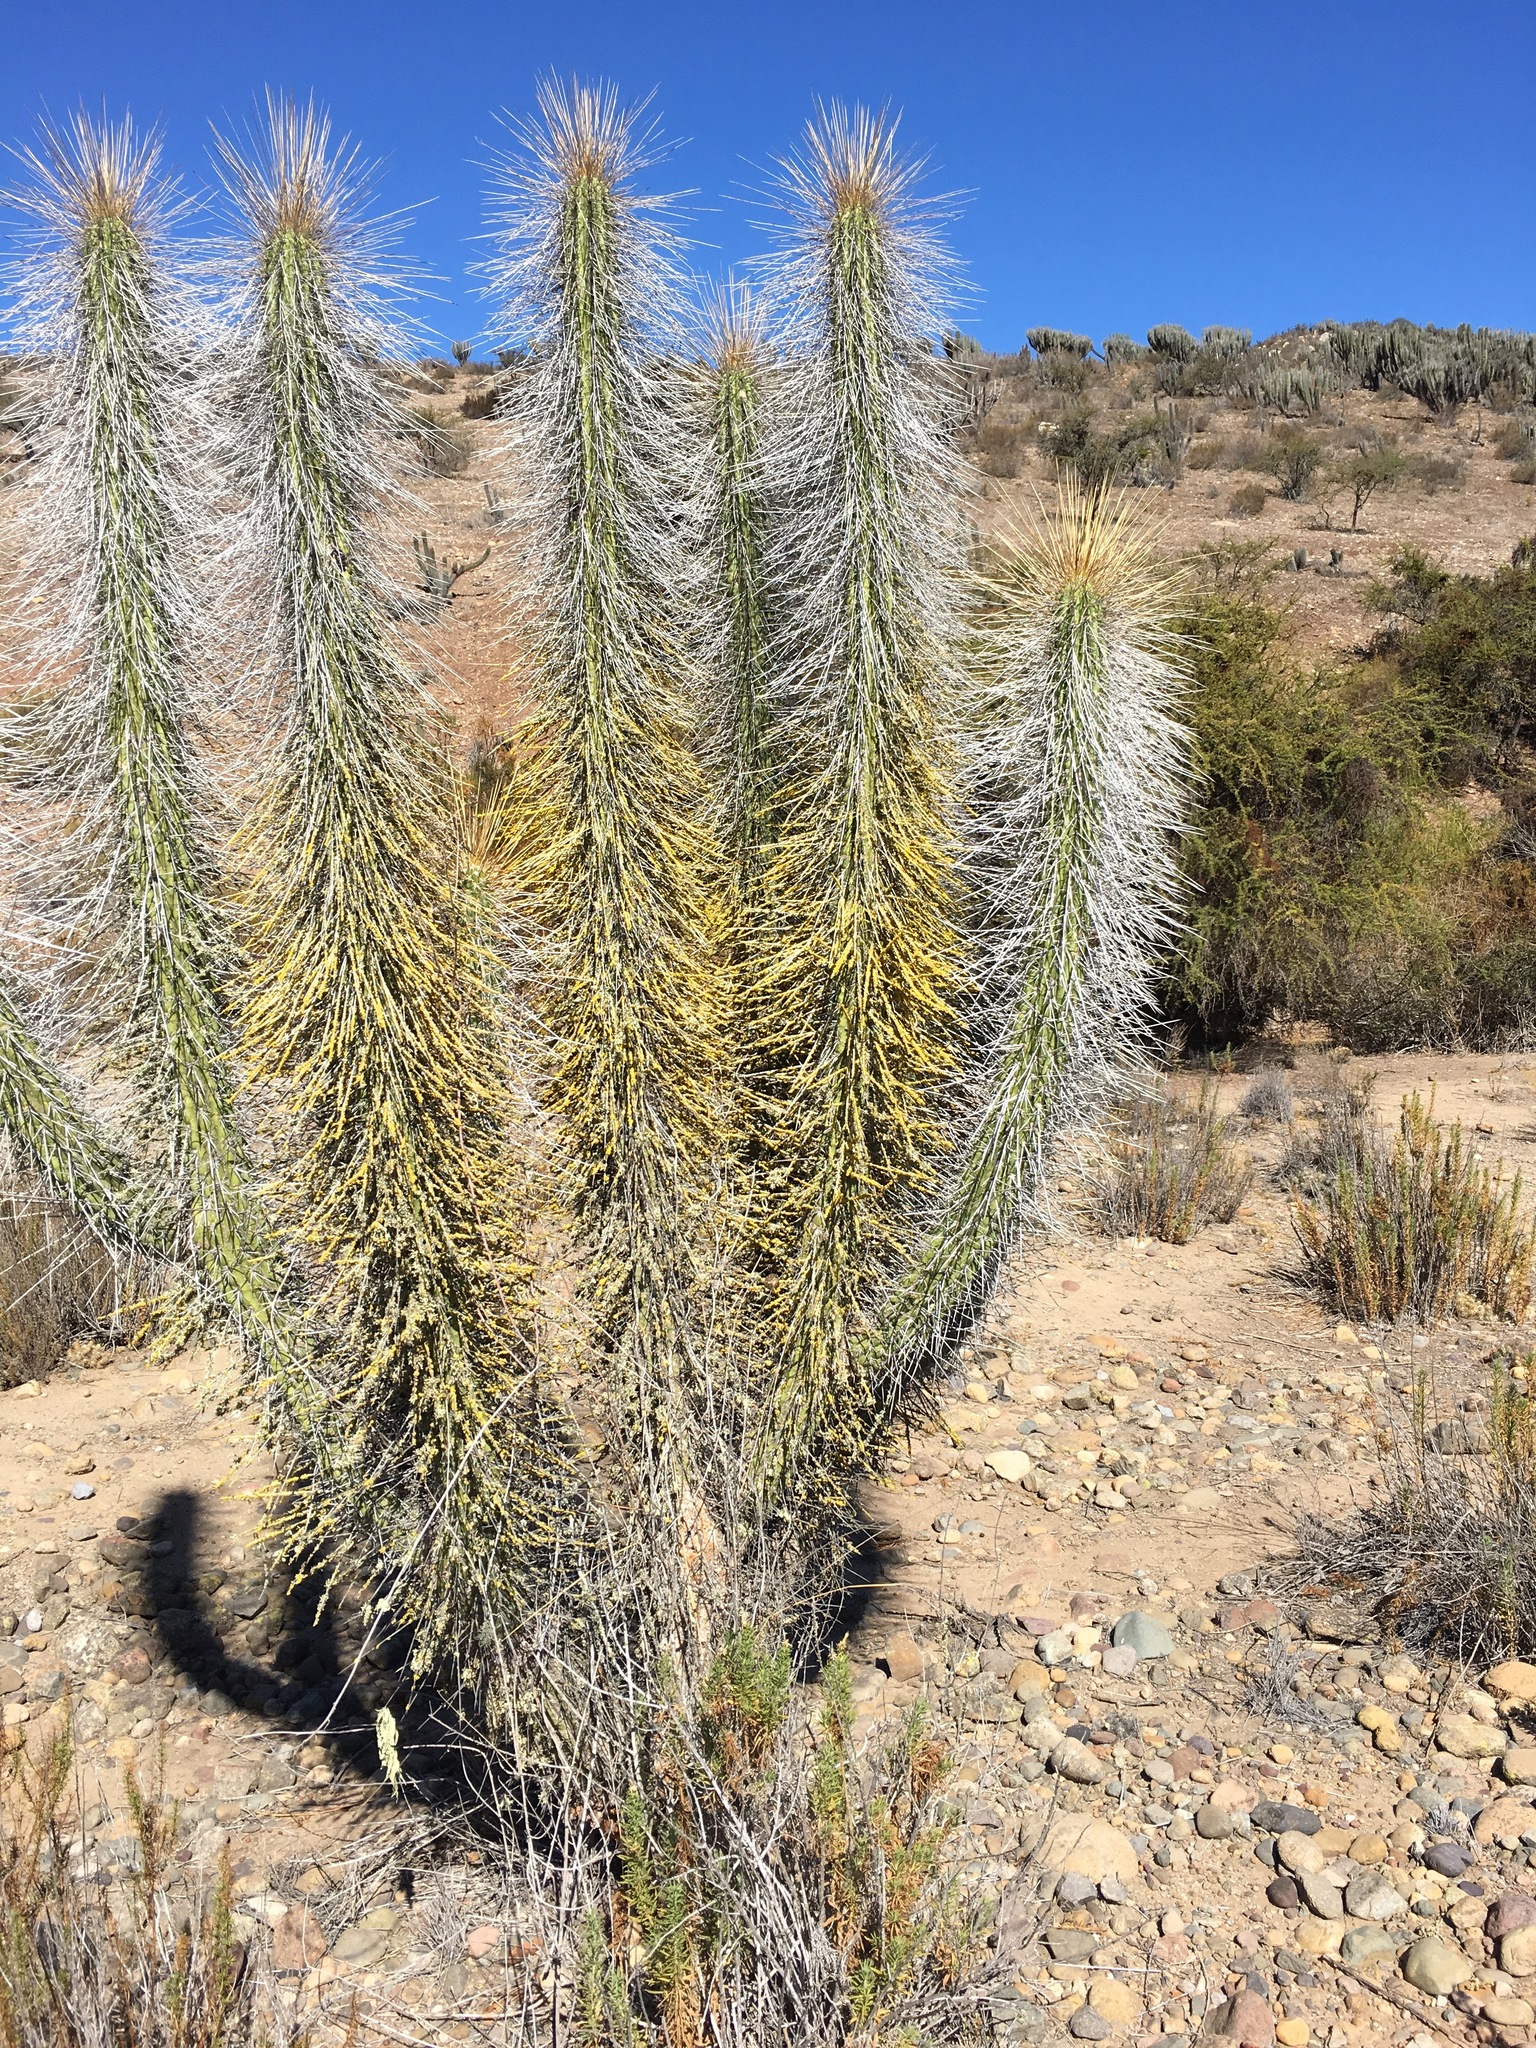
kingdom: Plantae
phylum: Tracheophyta
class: Magnoliopsida
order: Caryophyllales
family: Cactaceae
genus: Eulychnia
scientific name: Eulychnia acida
